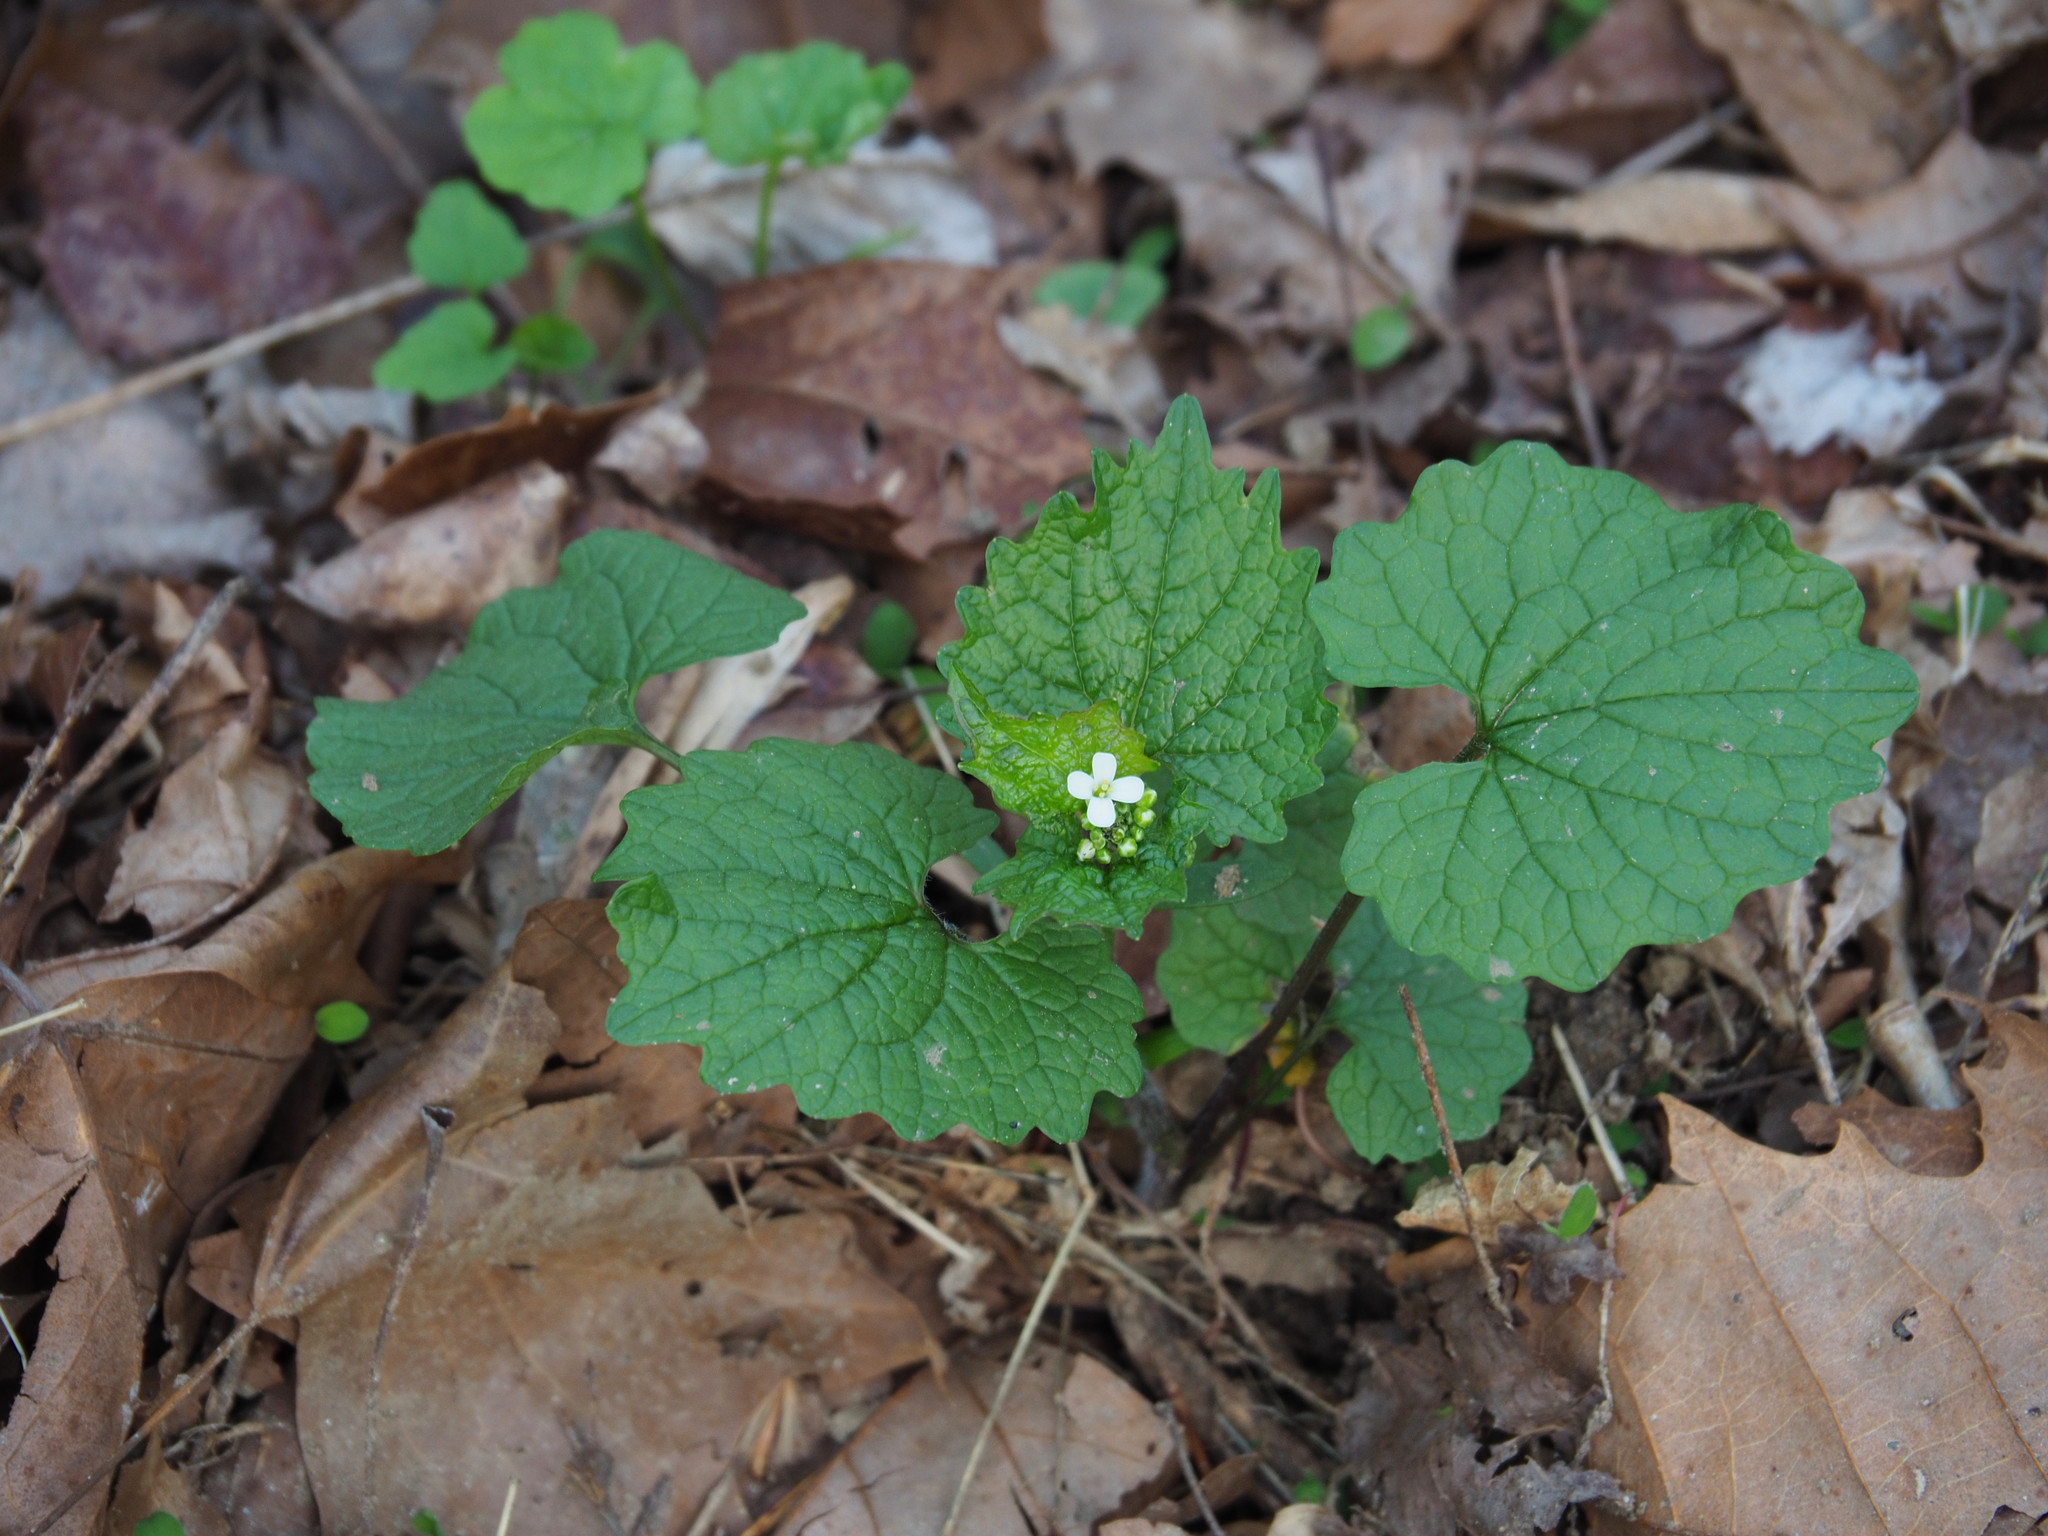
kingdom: Plantae
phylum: Tracheophyta
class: Magnoliopsida
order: Brassicales
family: Brassicaceae
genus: Alliaria
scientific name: Alliaria petiolata
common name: Garlic mustard
